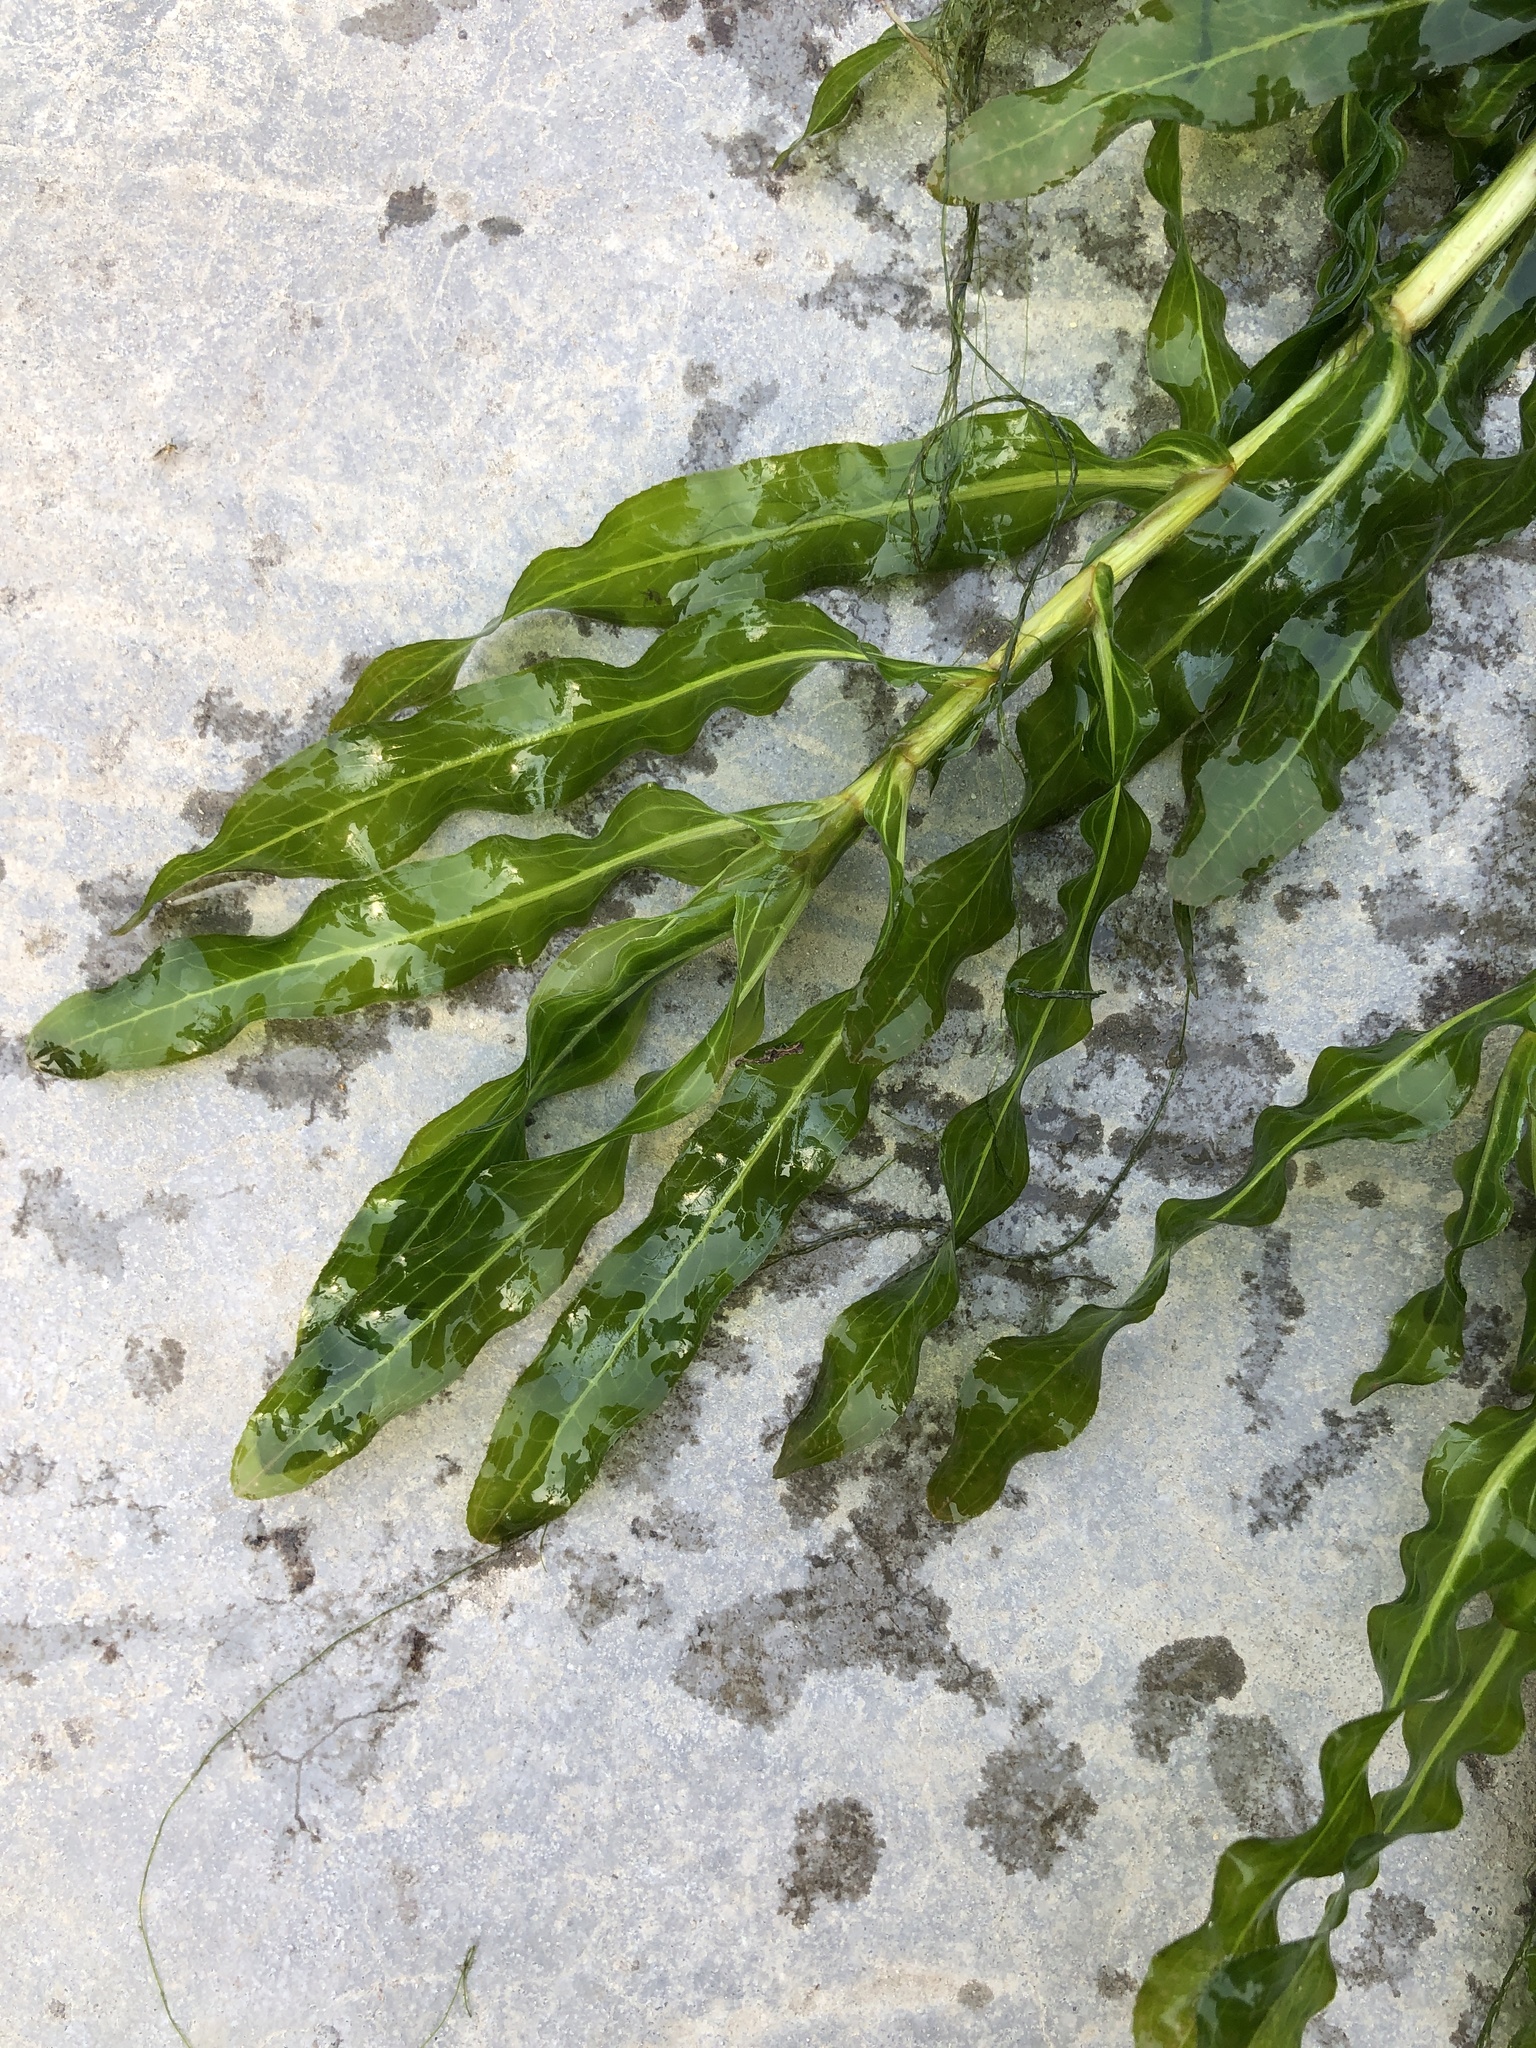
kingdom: Plantae
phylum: Tracheophyta
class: Liliopsida
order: Alismatales
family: Potamogetonaceae
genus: Potamogeton
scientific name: Potamogeton crispus
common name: Curled pondweed
